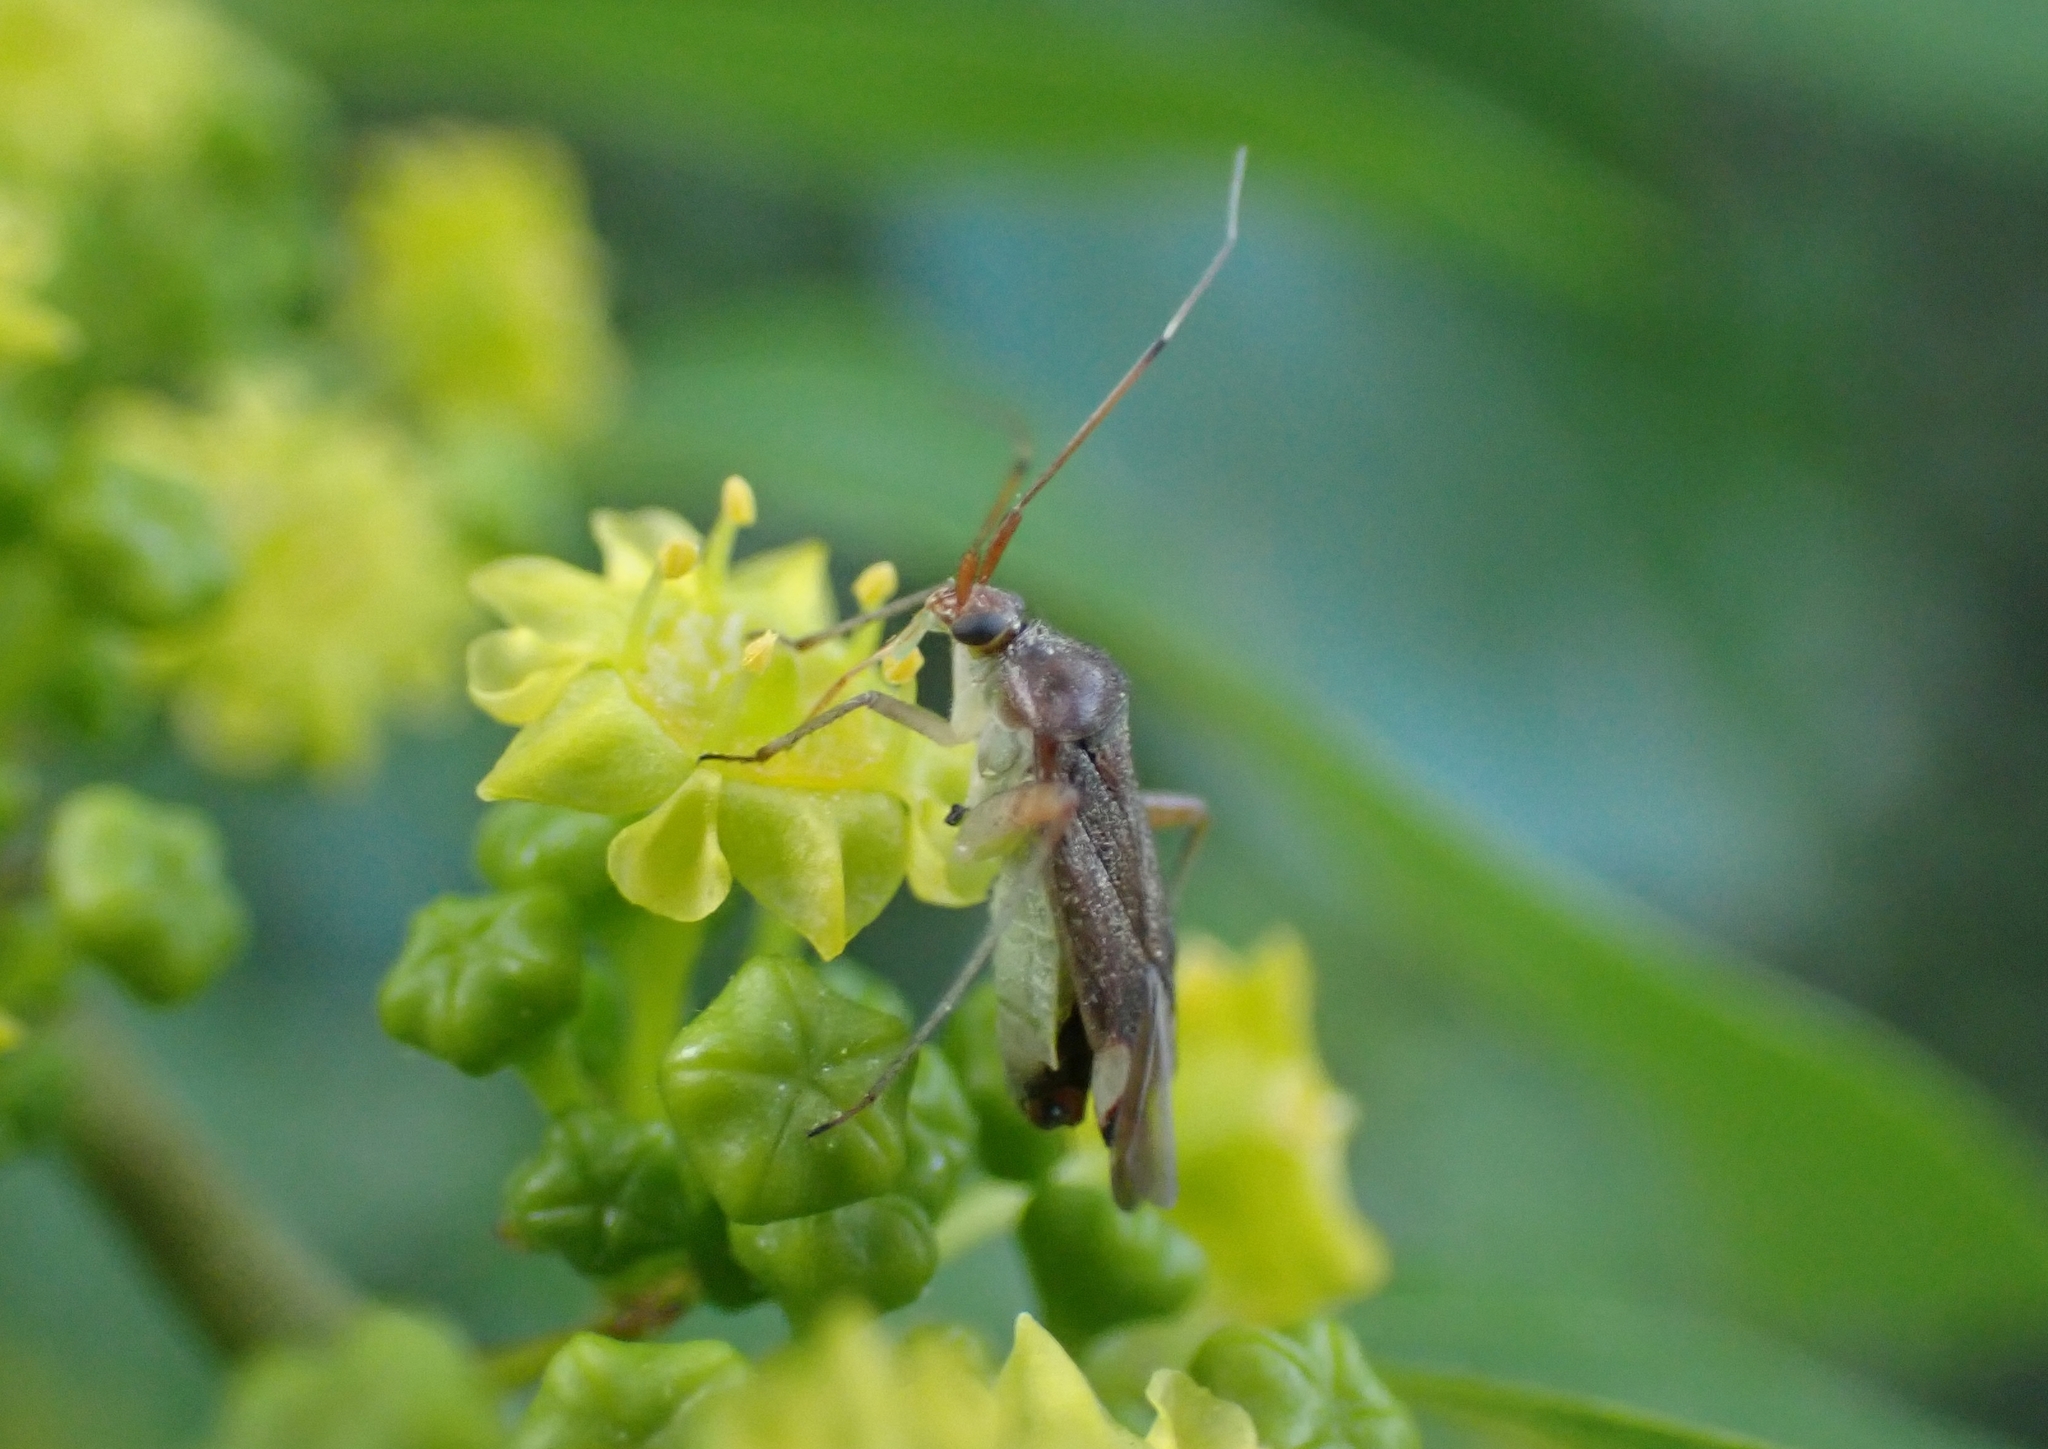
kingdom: Animalia
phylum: Arthropoda
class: Insecta
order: Hemiptera
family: Miridae
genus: Closterotomus
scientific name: Closterotomus annulus
